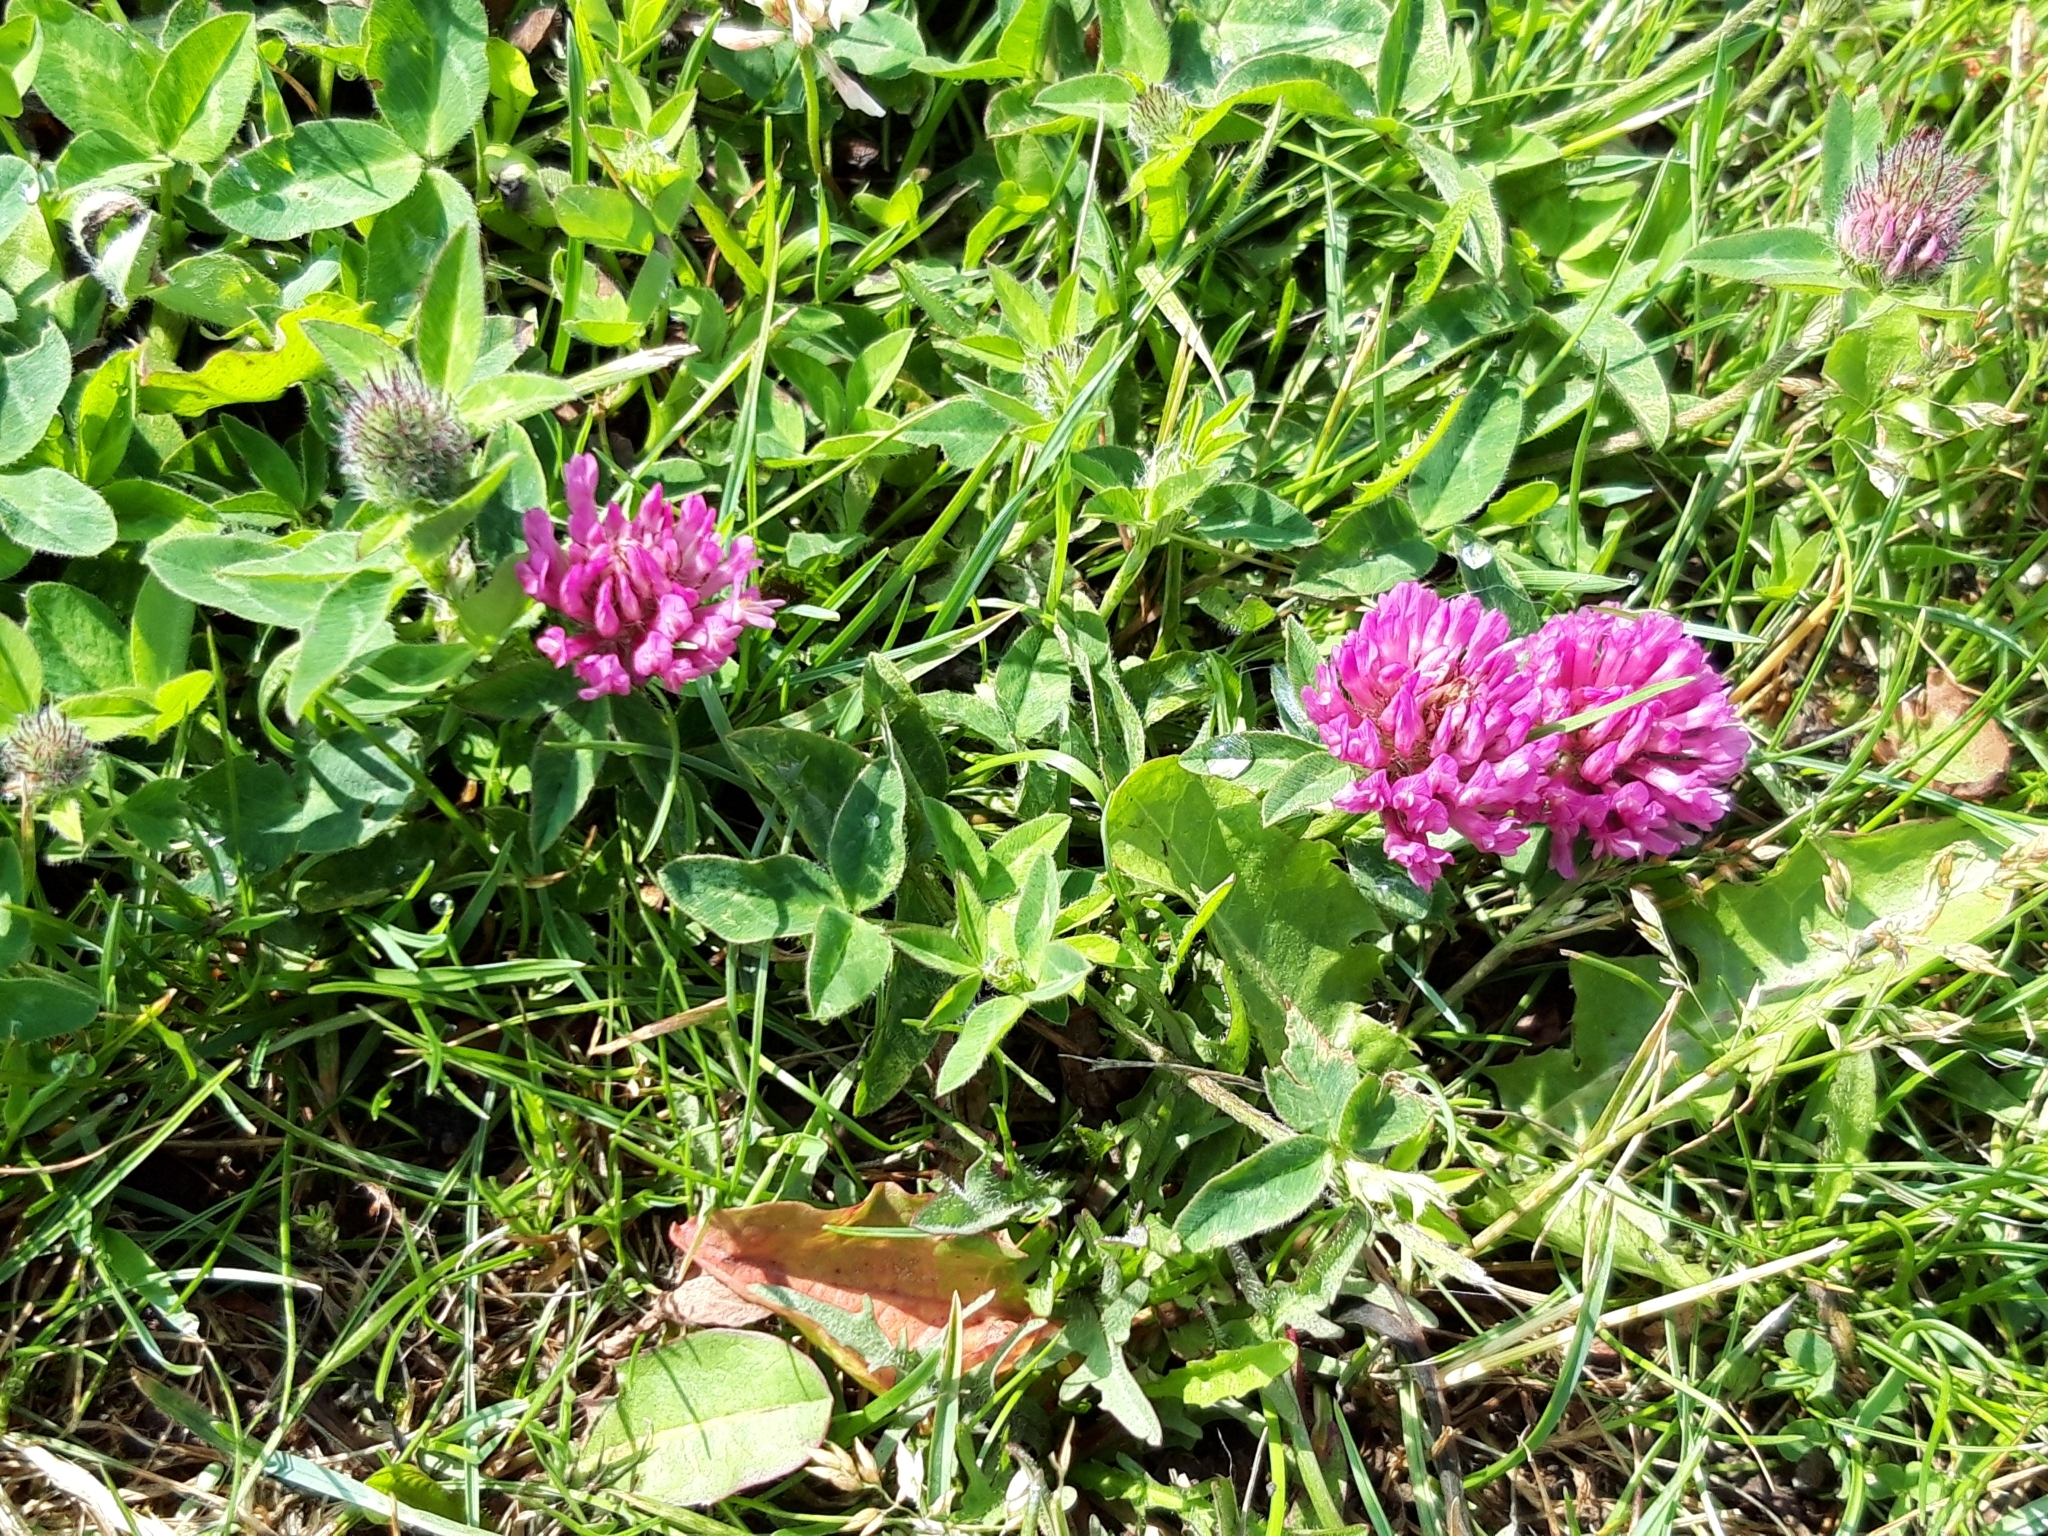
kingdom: Plantae
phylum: Tracheophyta
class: Magnoliopsida
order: Fabales
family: Fabaceae
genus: Trifolium
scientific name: Trifolium pratense
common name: Red clover
